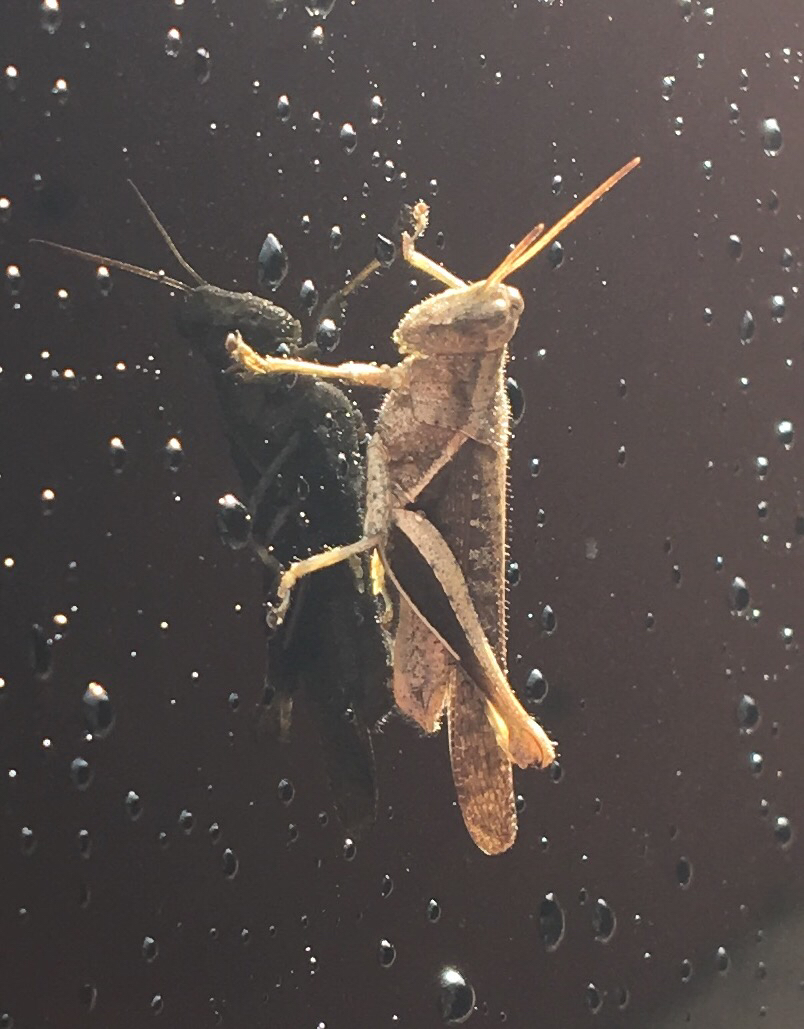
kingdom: Animalia
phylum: Arthropoda
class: Insecta
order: Orthoptera
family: Acrididae
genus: Abracris
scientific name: Abracris flavolineata
